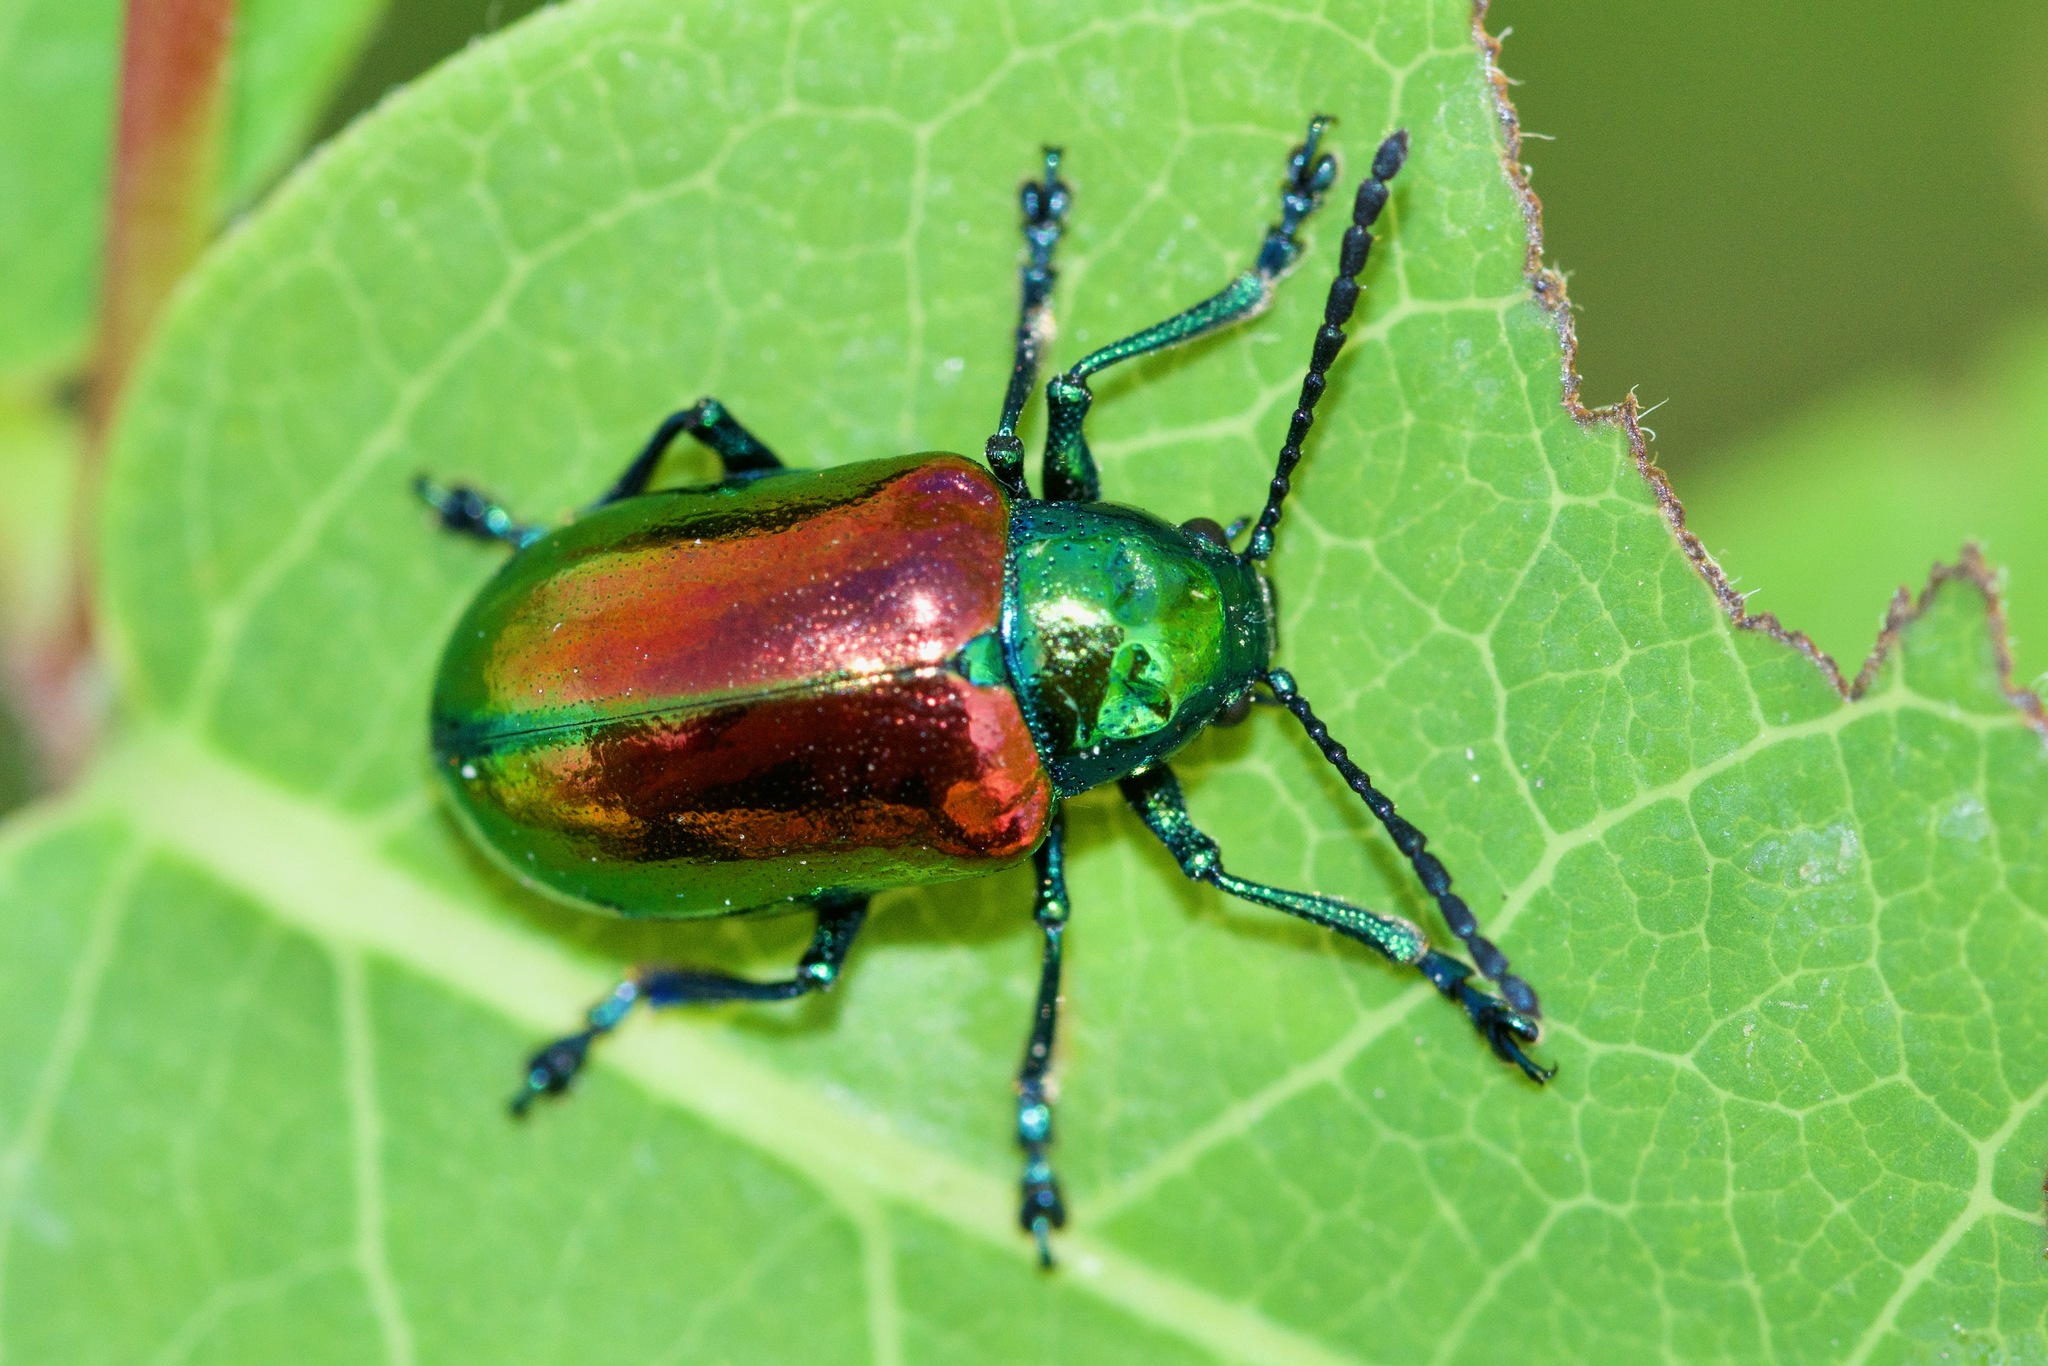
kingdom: Animalia
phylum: Arthropoda
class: Insecta
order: Coleoptera
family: Chrysomelidae
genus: Chrysochus
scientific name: Chrysochus auratus
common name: Dogbane leaf beetle
